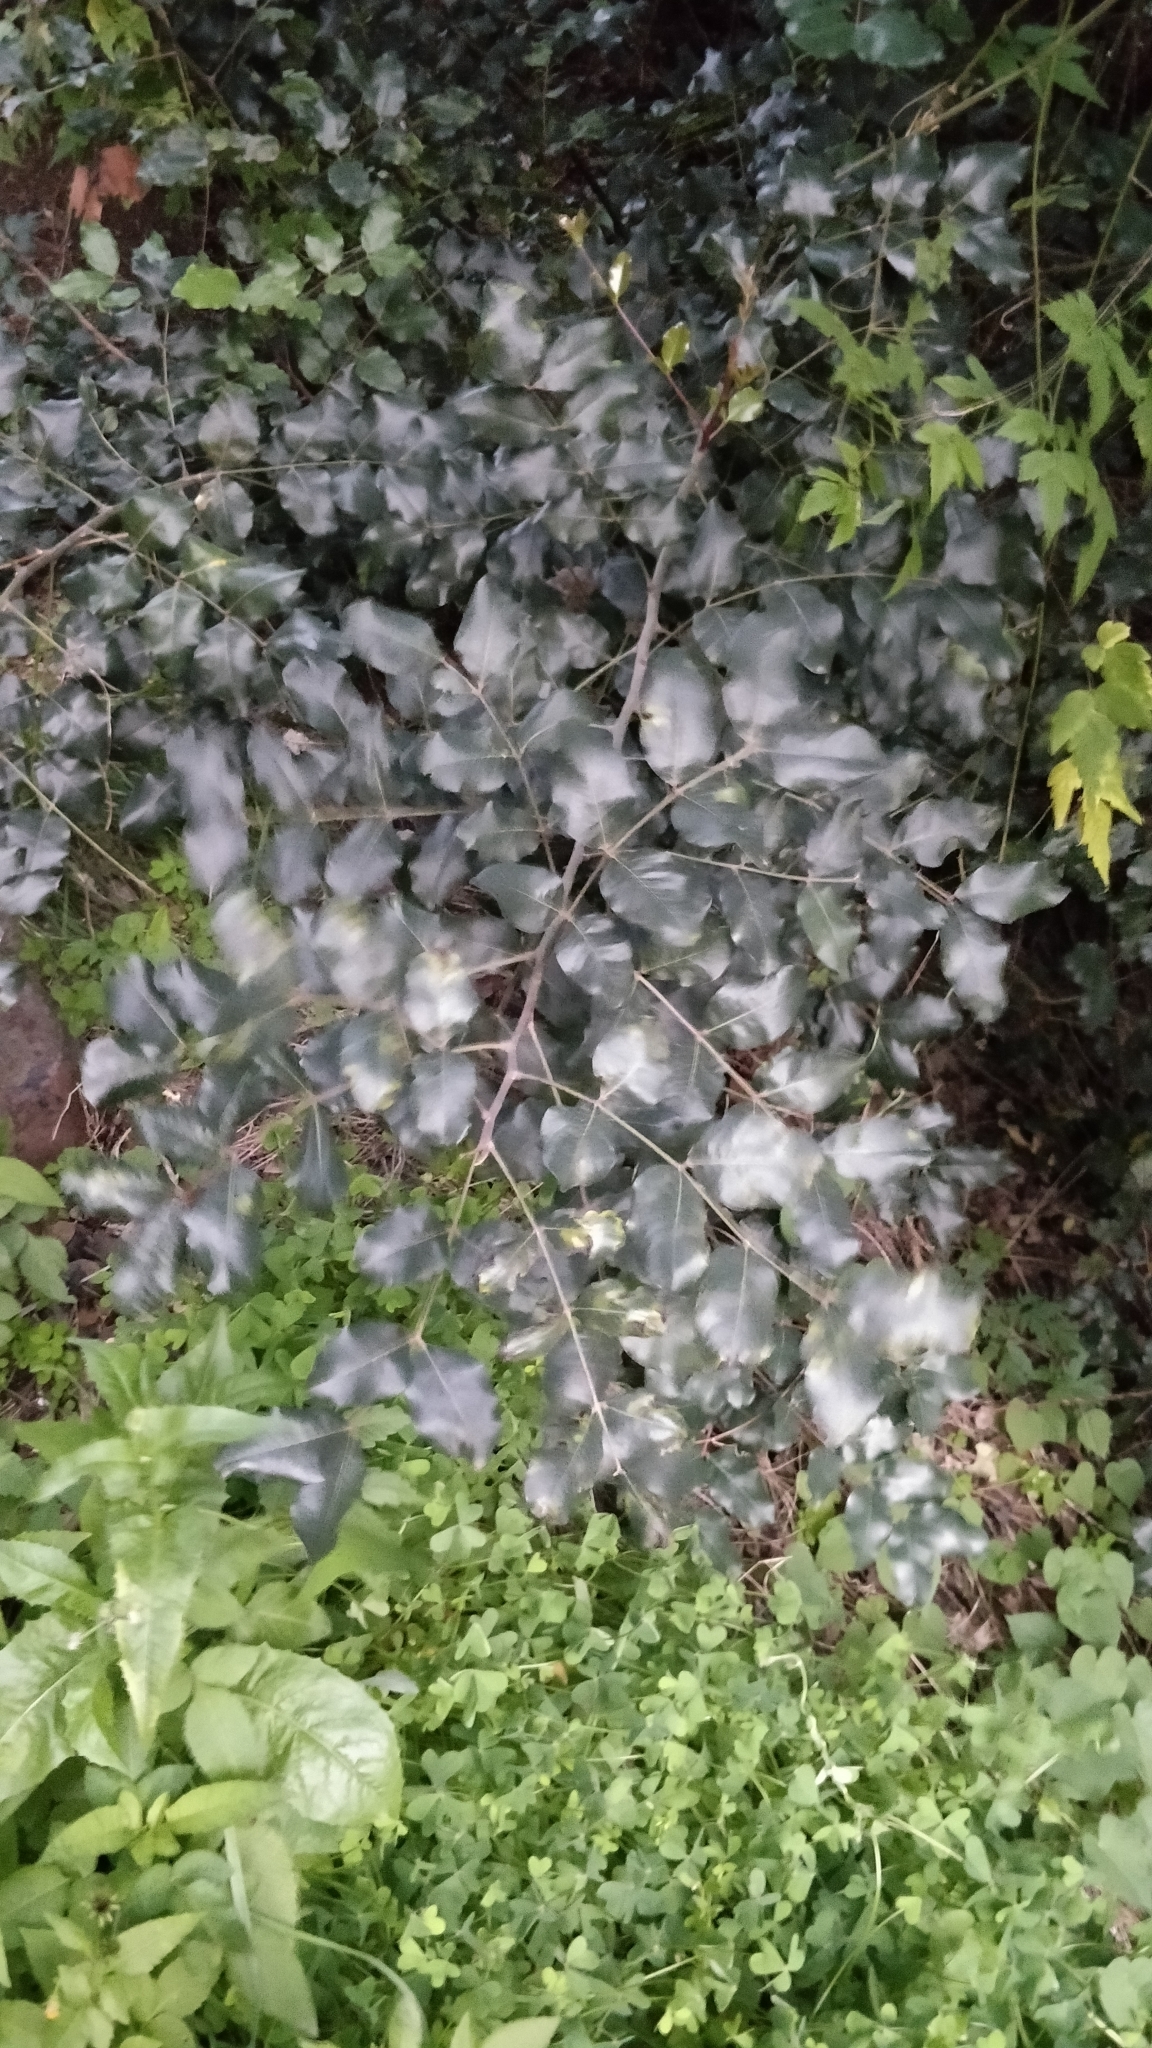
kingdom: Plantae
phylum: Tracheophyta
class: Magnoliopsida
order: Fabales
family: Fabaceae
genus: Ceratonia
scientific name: Ceratonia siliqua
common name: Carob
